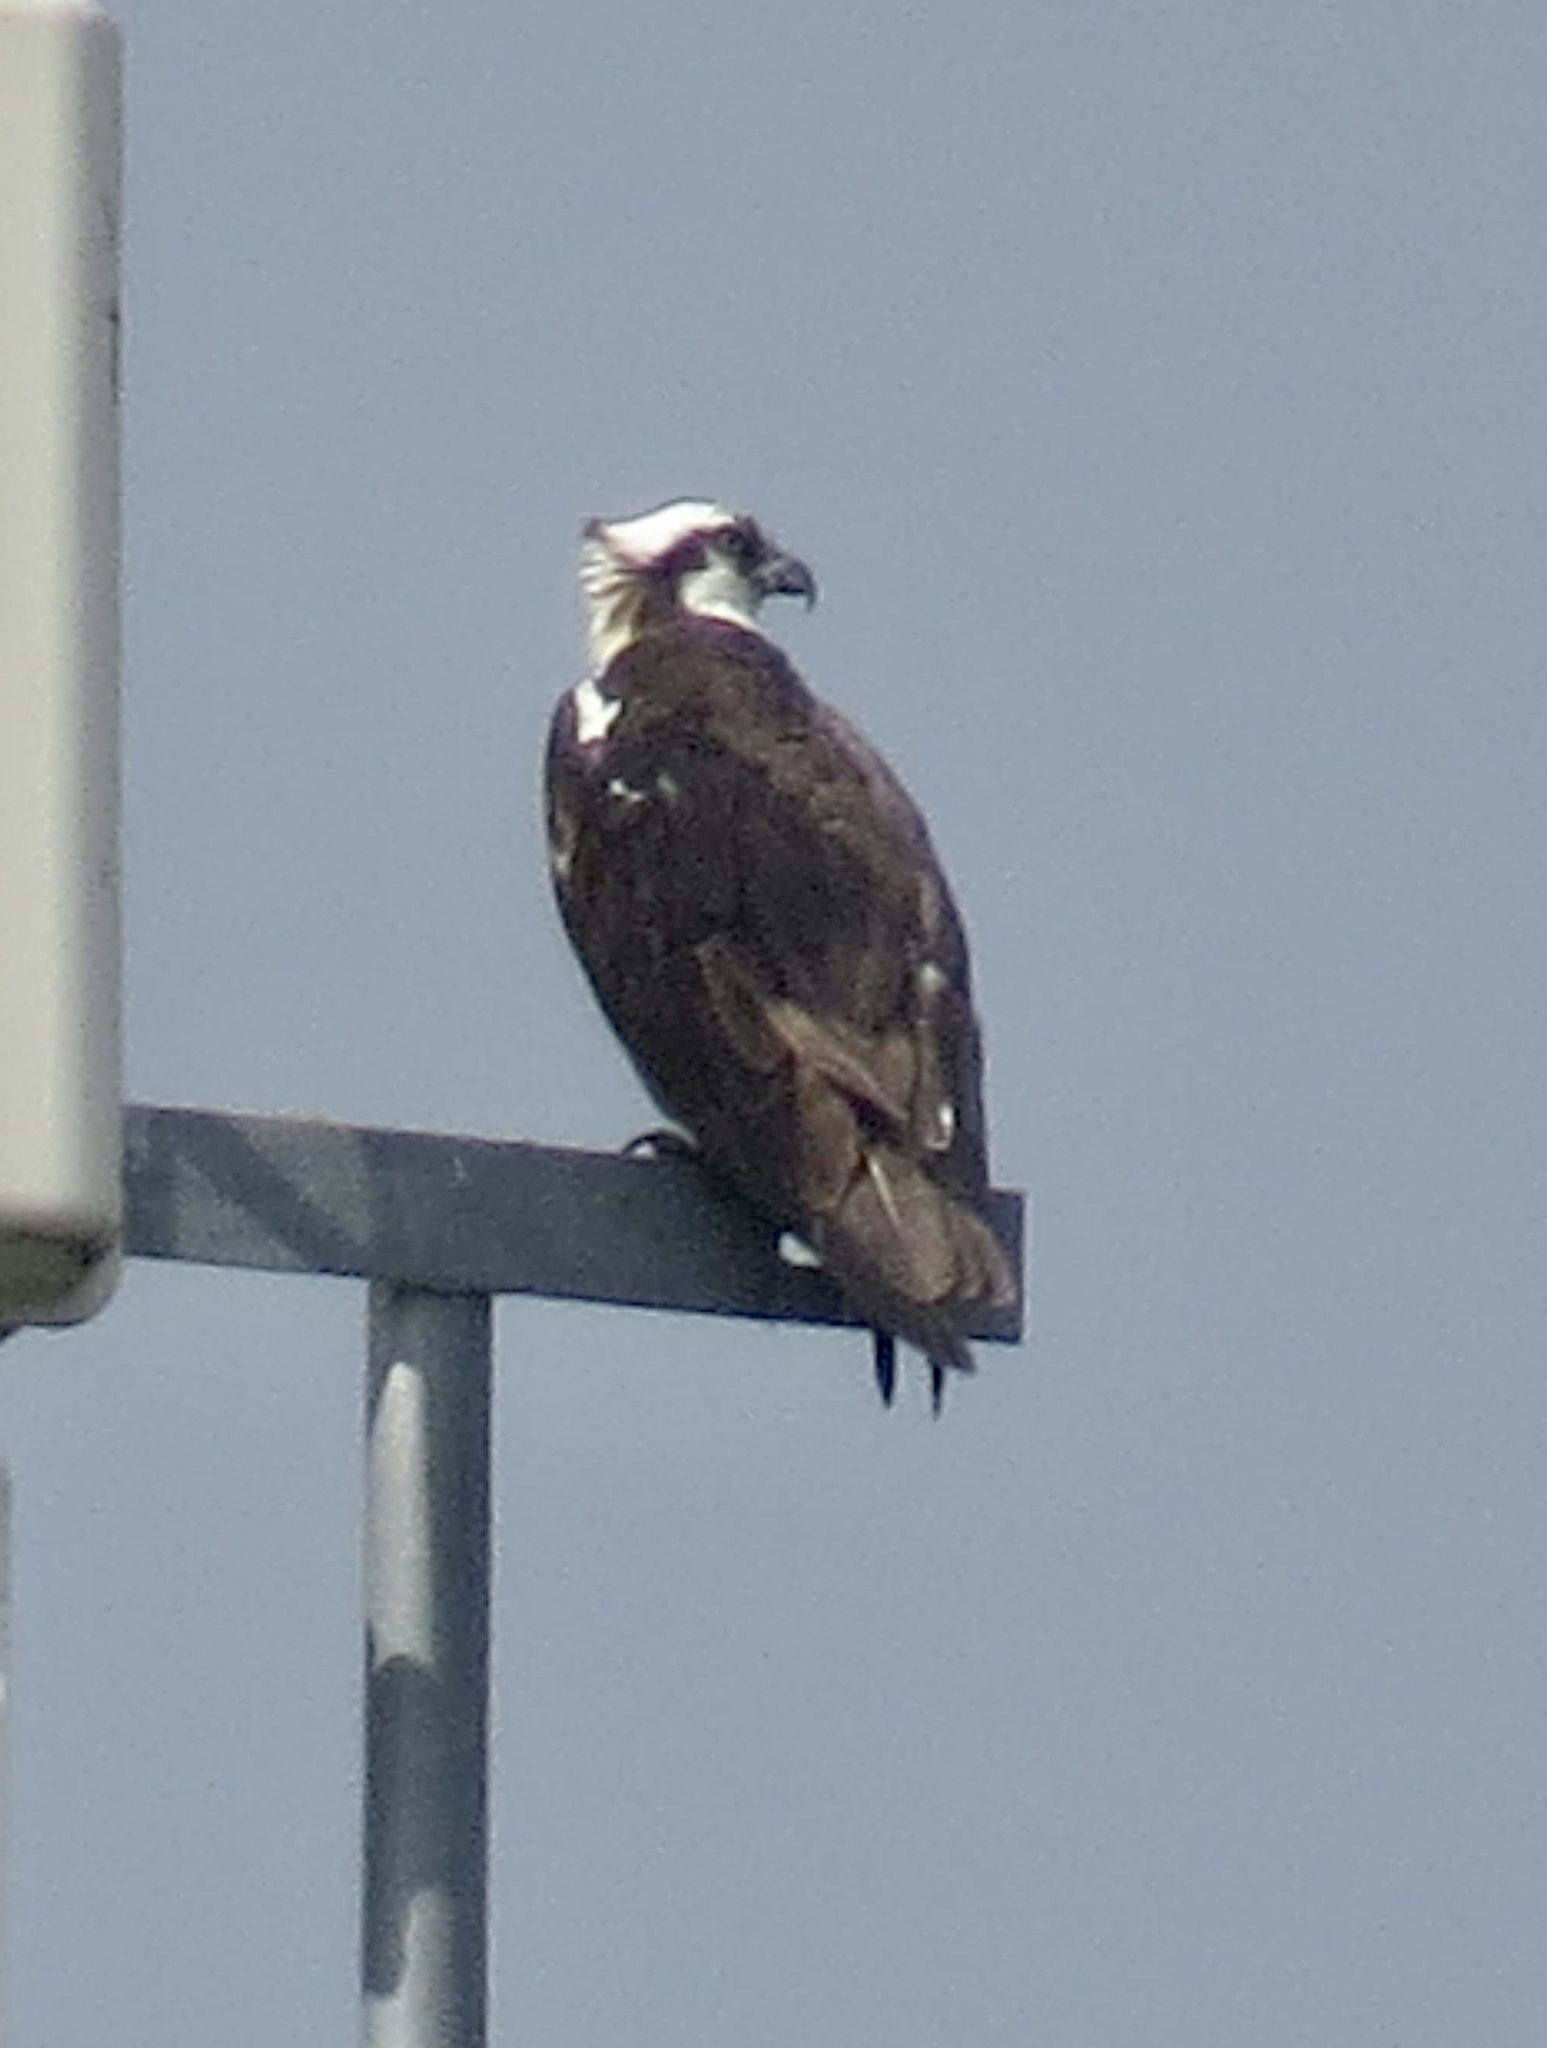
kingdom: Animalia
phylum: Chordata
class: Aves
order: Accipitriformes
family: Pandionidae
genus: Pandion
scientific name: Pandion haliaetus
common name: Osprey
